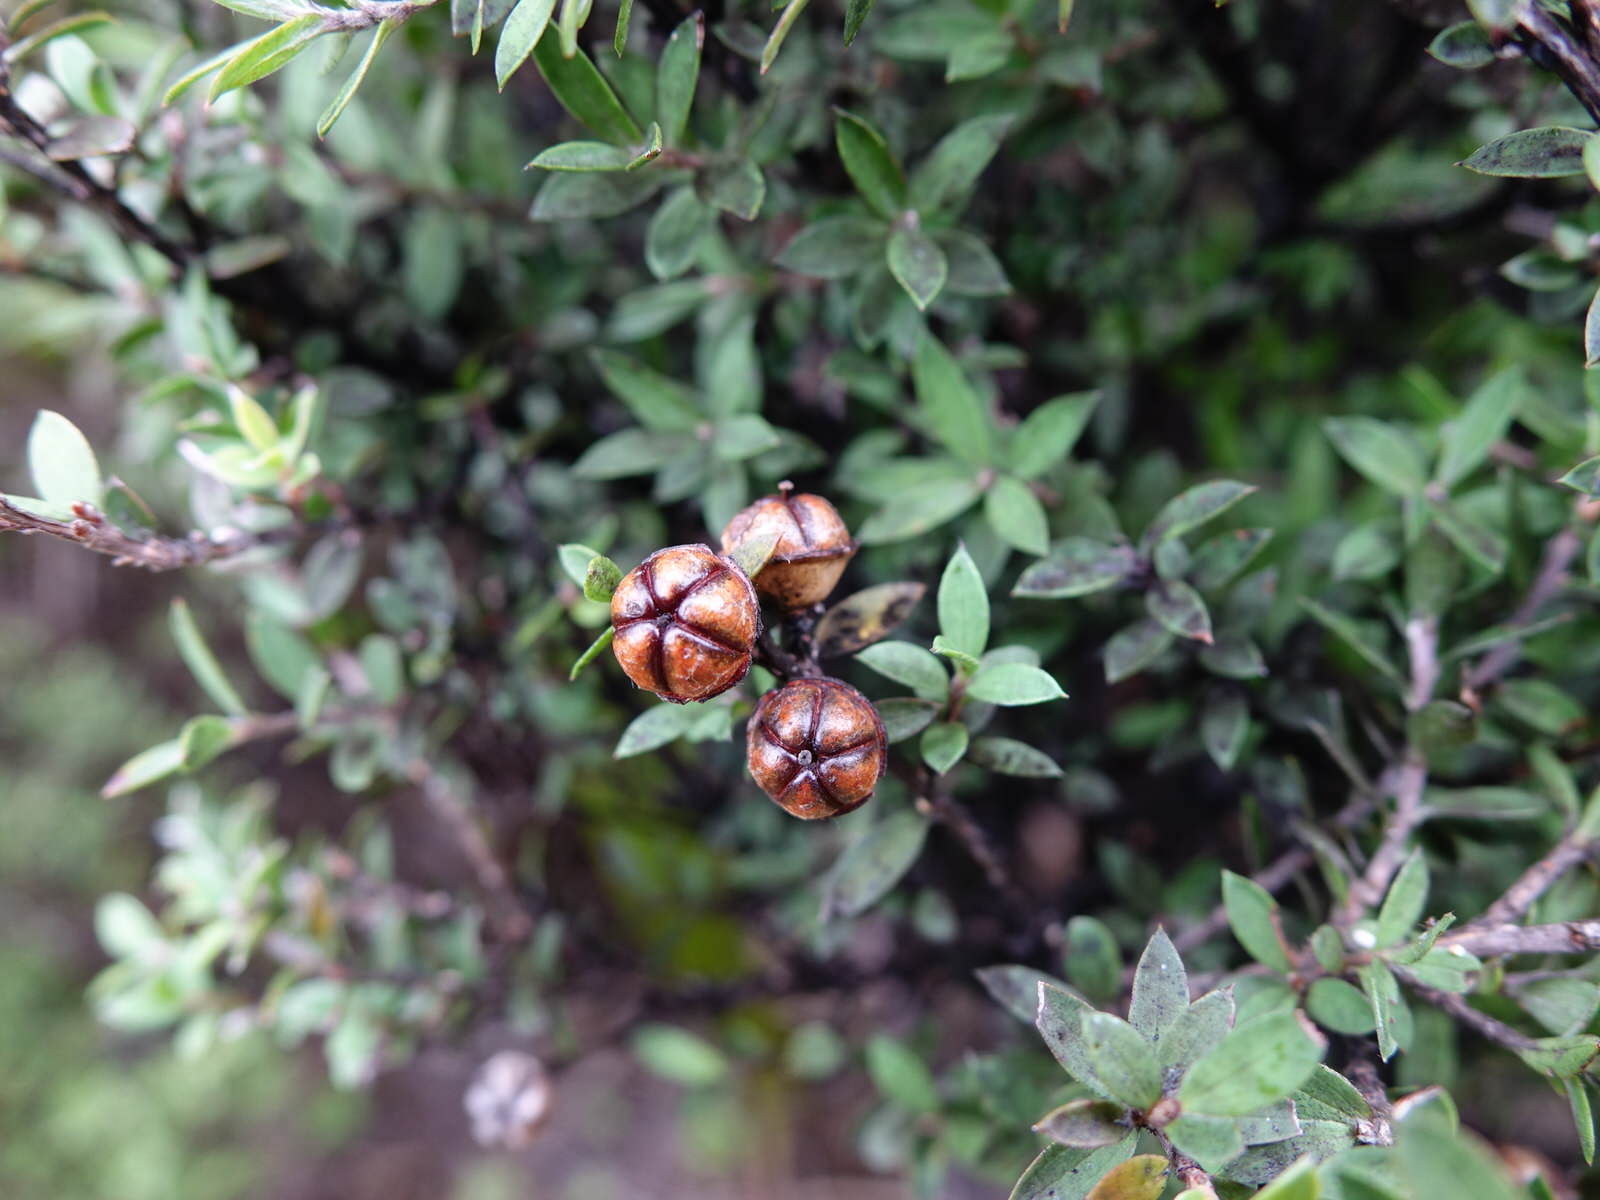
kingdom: Plantae
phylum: Tracheophyta
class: Magnoliopsida
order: Myrtales
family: Myrtaceae
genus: Leptospermum
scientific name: Leptospermum scoparium
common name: Broom tea-tree
